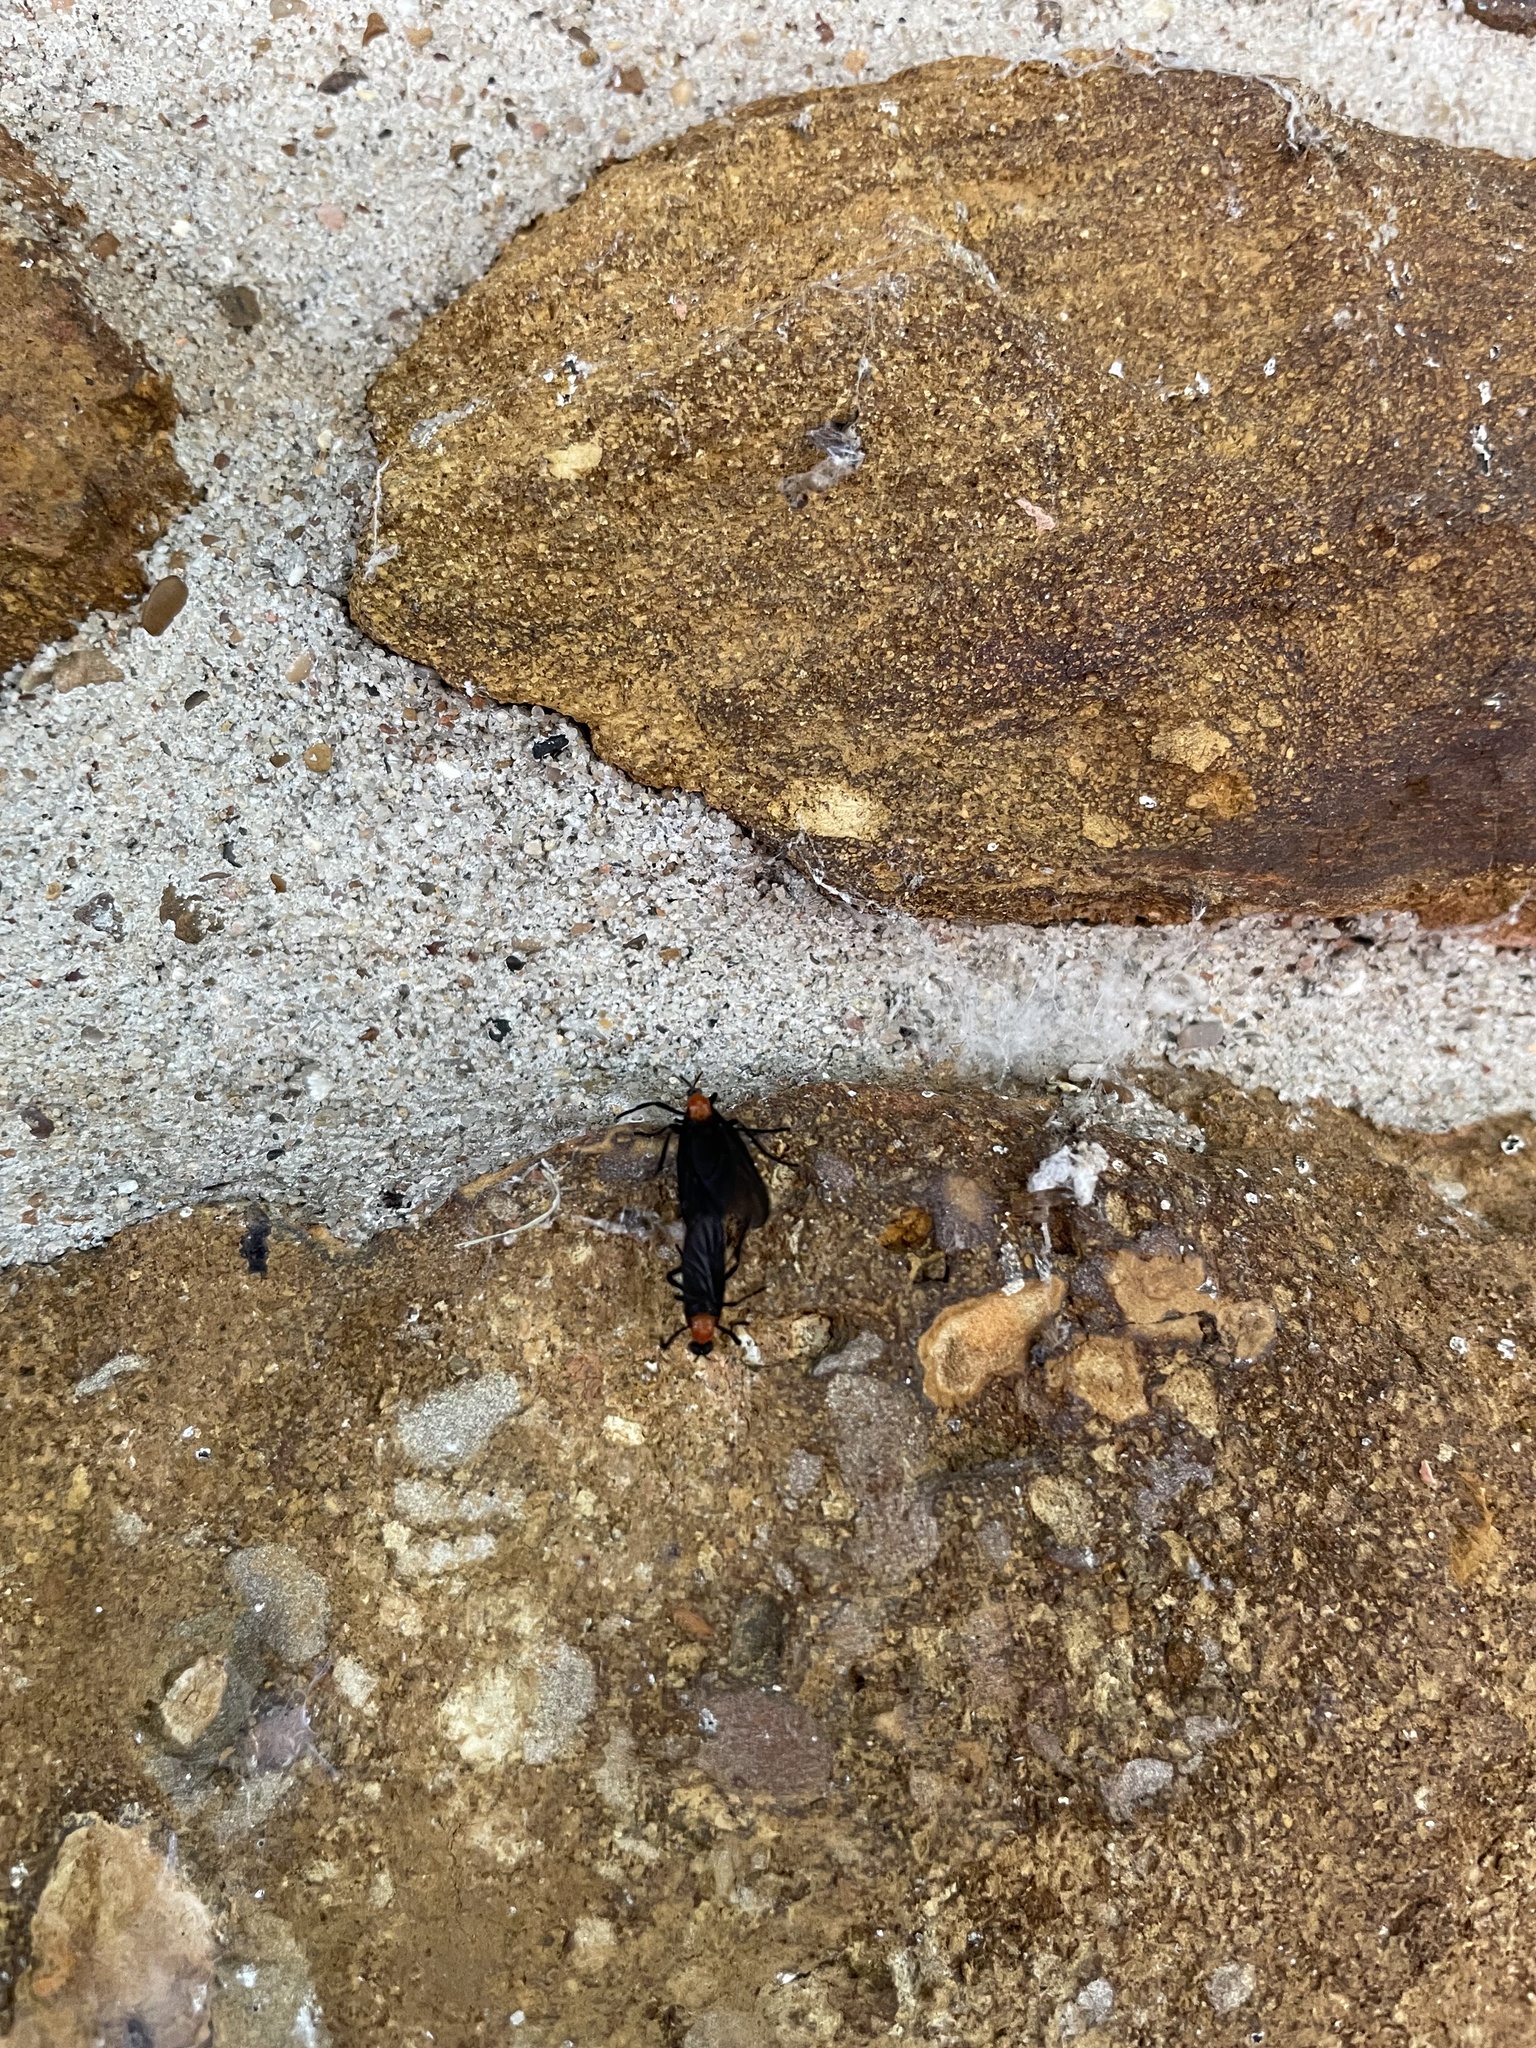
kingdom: Animalia
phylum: Arthropoda
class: Insecta
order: Diptera
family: Bibionidae
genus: Plecia
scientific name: Plecia nearctica
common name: March fly
